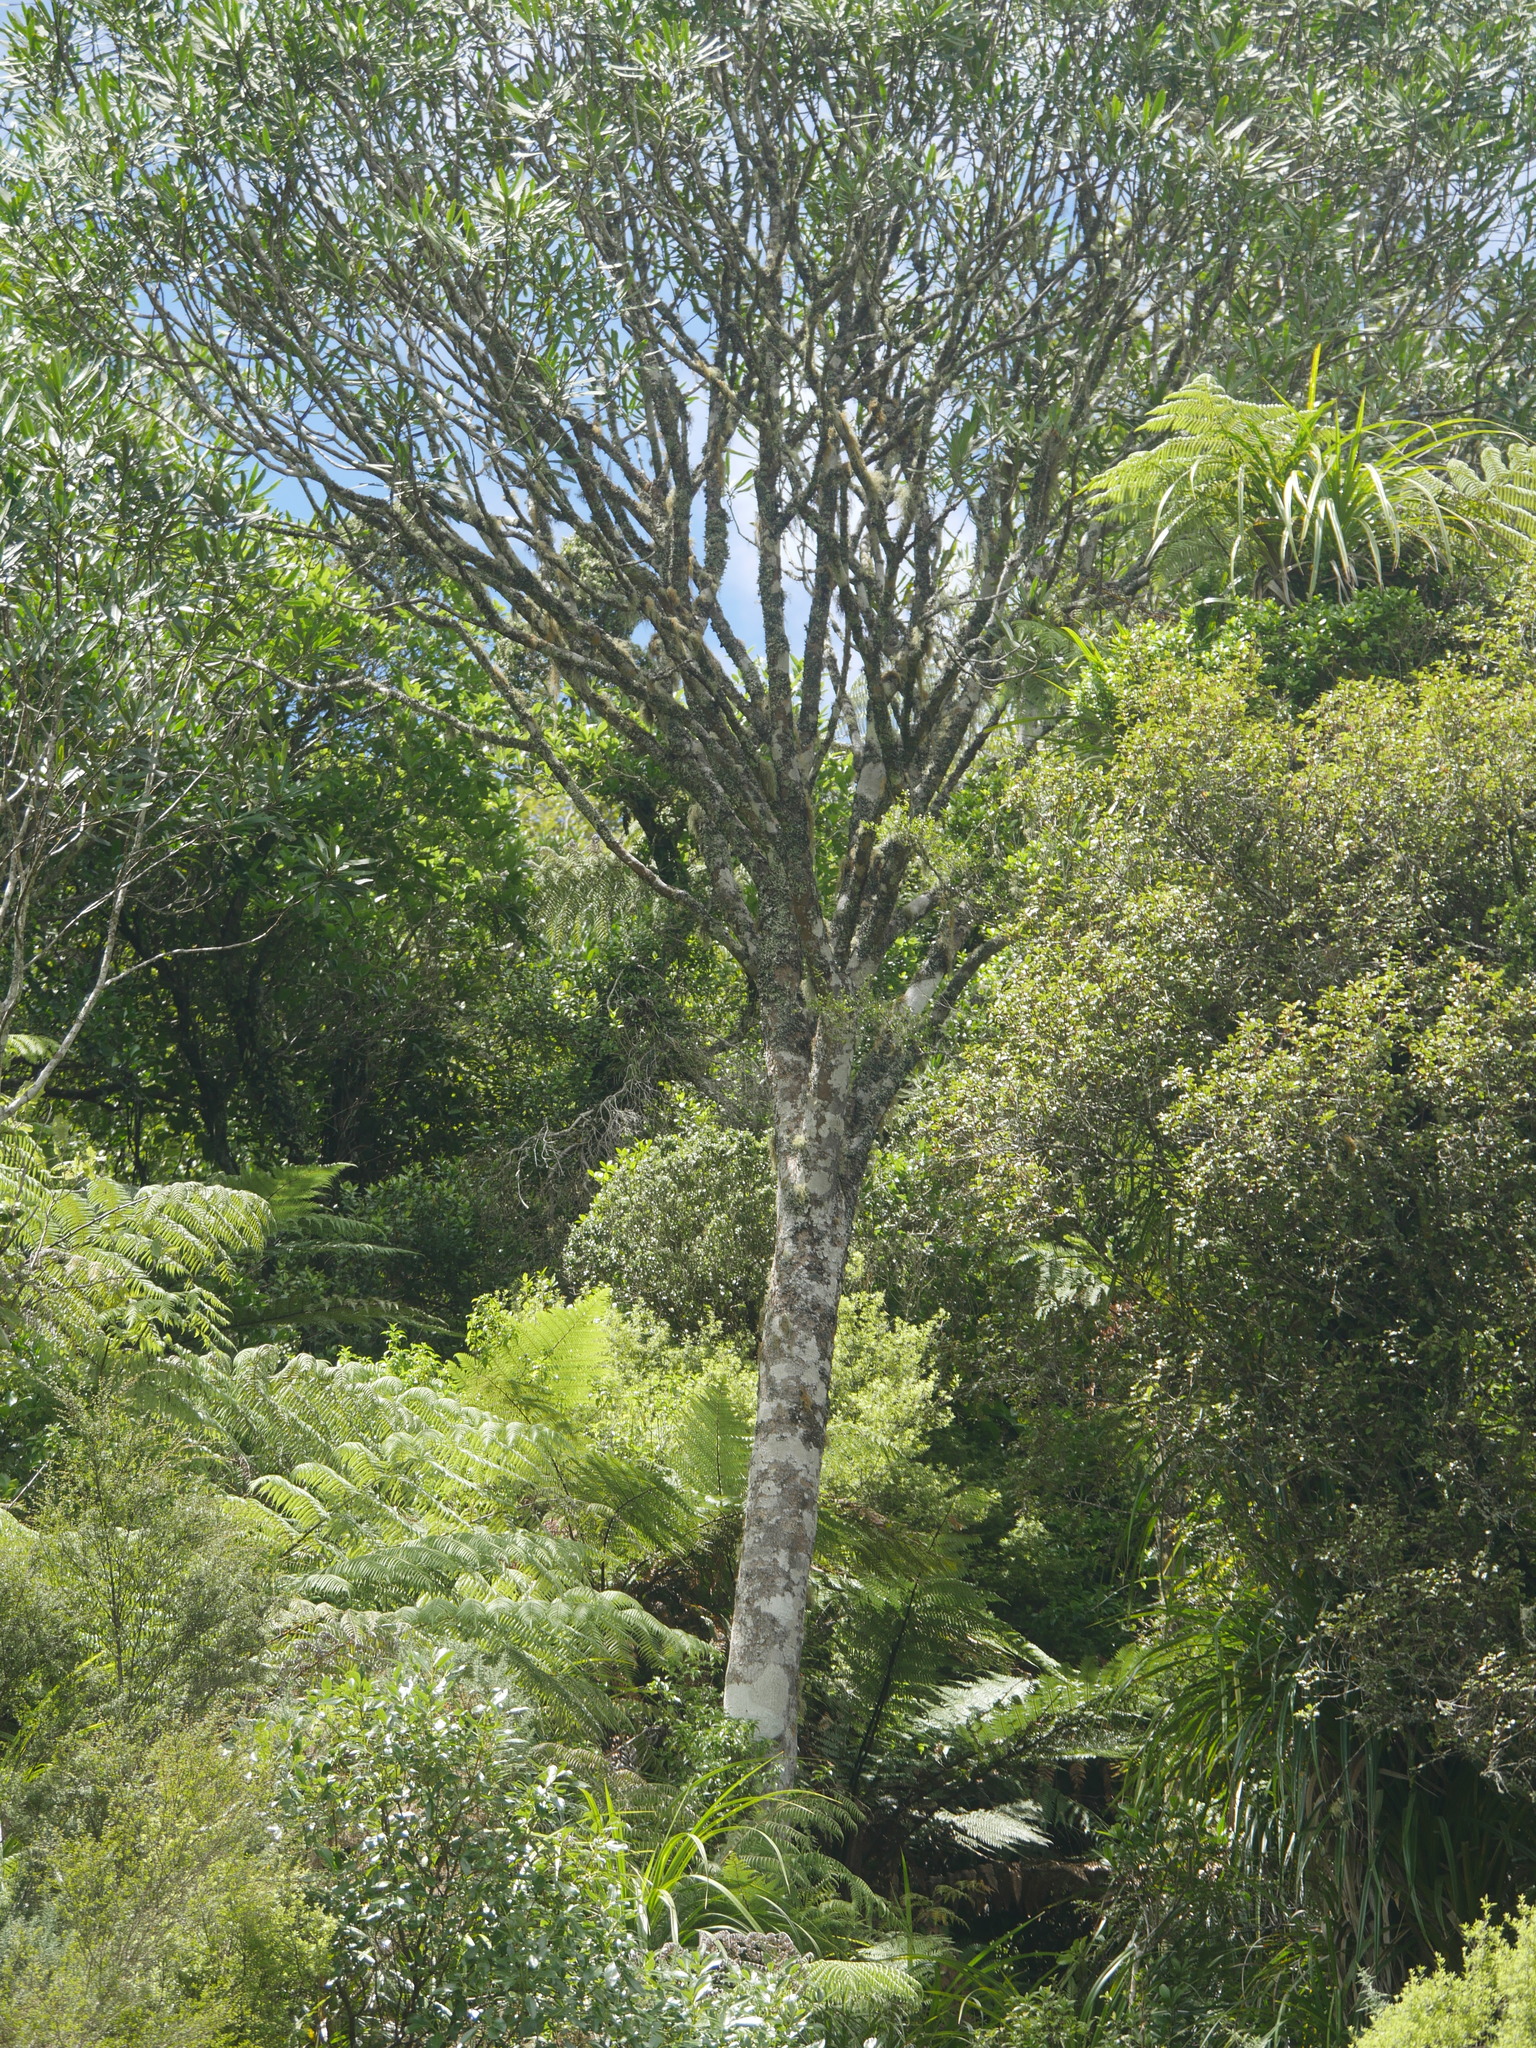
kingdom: Plantae
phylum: Tracheophyta
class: Magnoliopsida
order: Apiales
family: Araliaceae
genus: Pseudopanax
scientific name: Pseudopanax crassifolius
